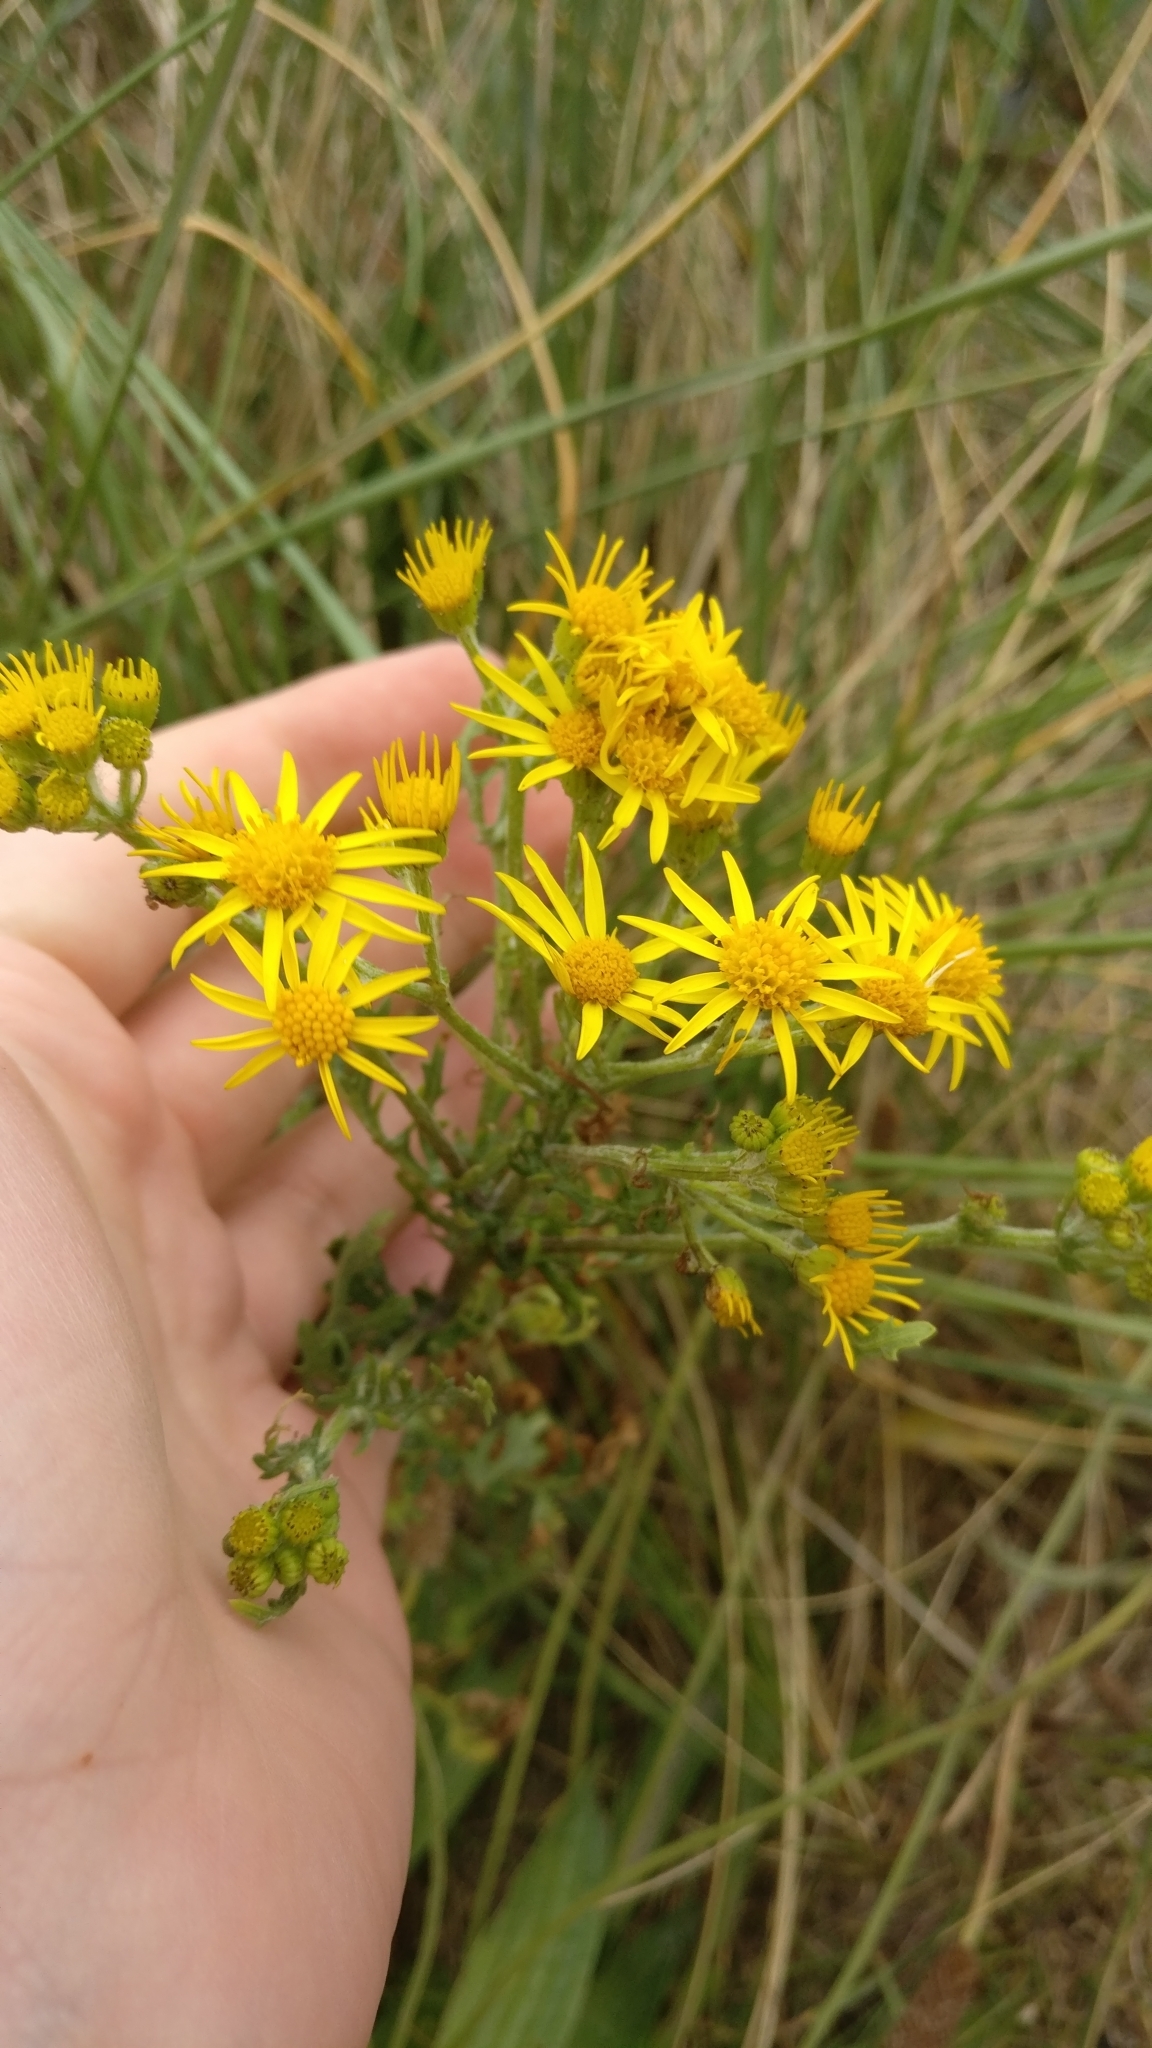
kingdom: Plantae
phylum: Tracheophyta
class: Magnoliopsida
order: Asterales
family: Asteraceae
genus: Jacobaea
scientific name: Jacobaea vulgaris
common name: Stinking willie
